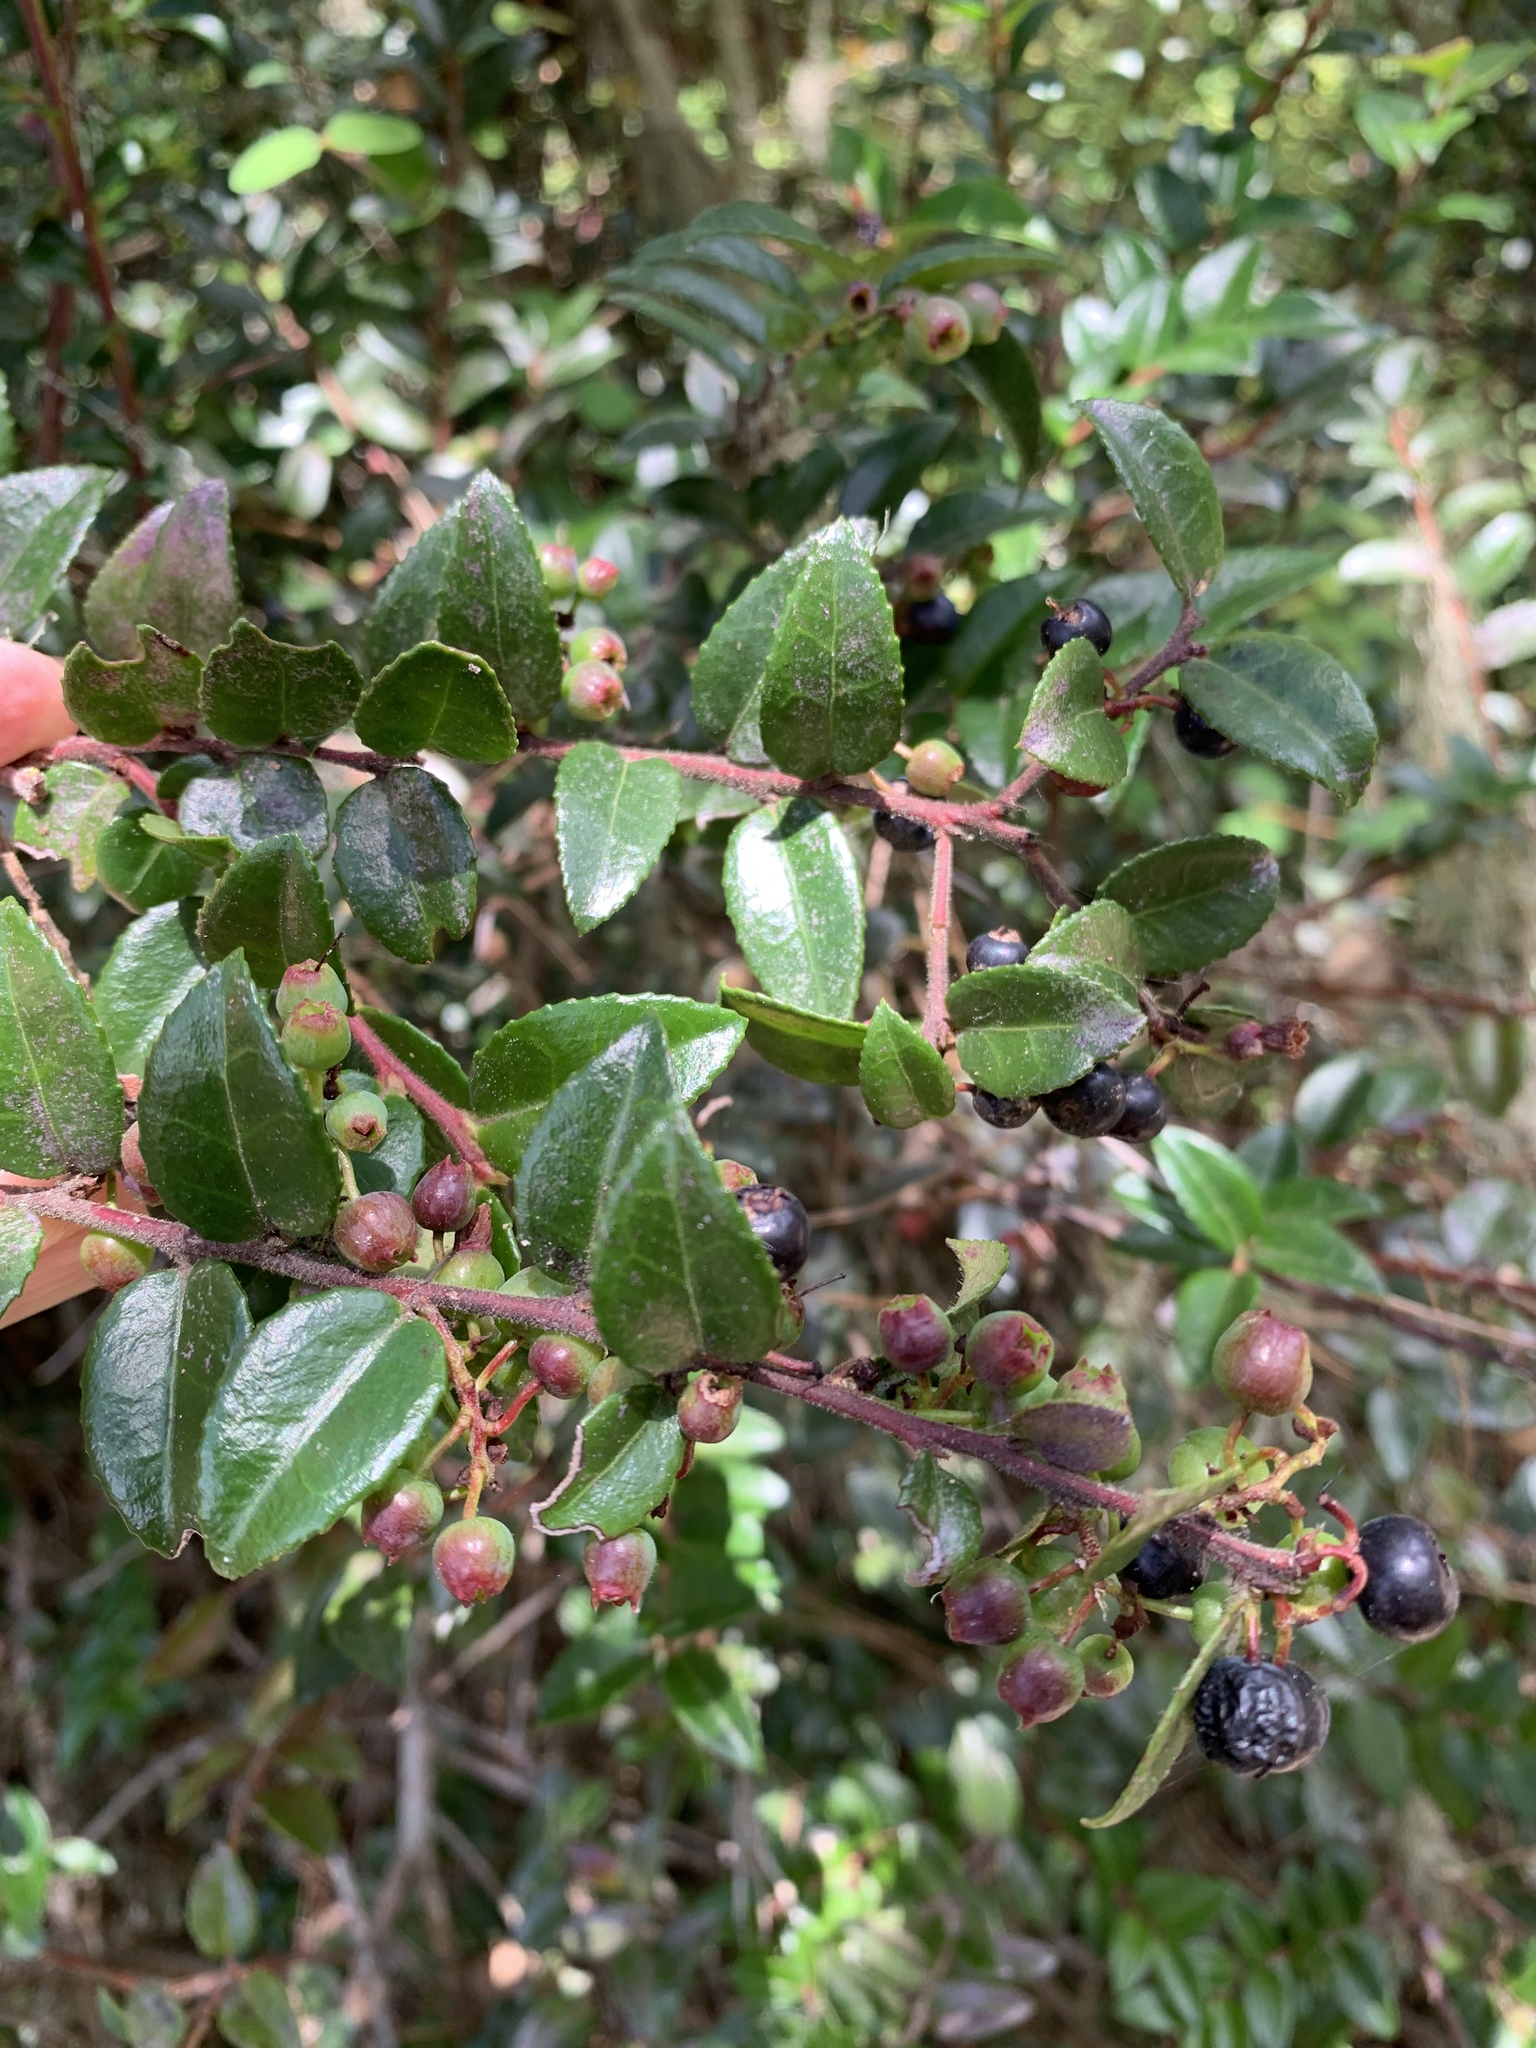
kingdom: Plantae
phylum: Tracheophyta
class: Magnoliopsida
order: Ericales
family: Ericaceae
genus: Vaccinium
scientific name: Vaccinium ovatum
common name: California-huckleberry
